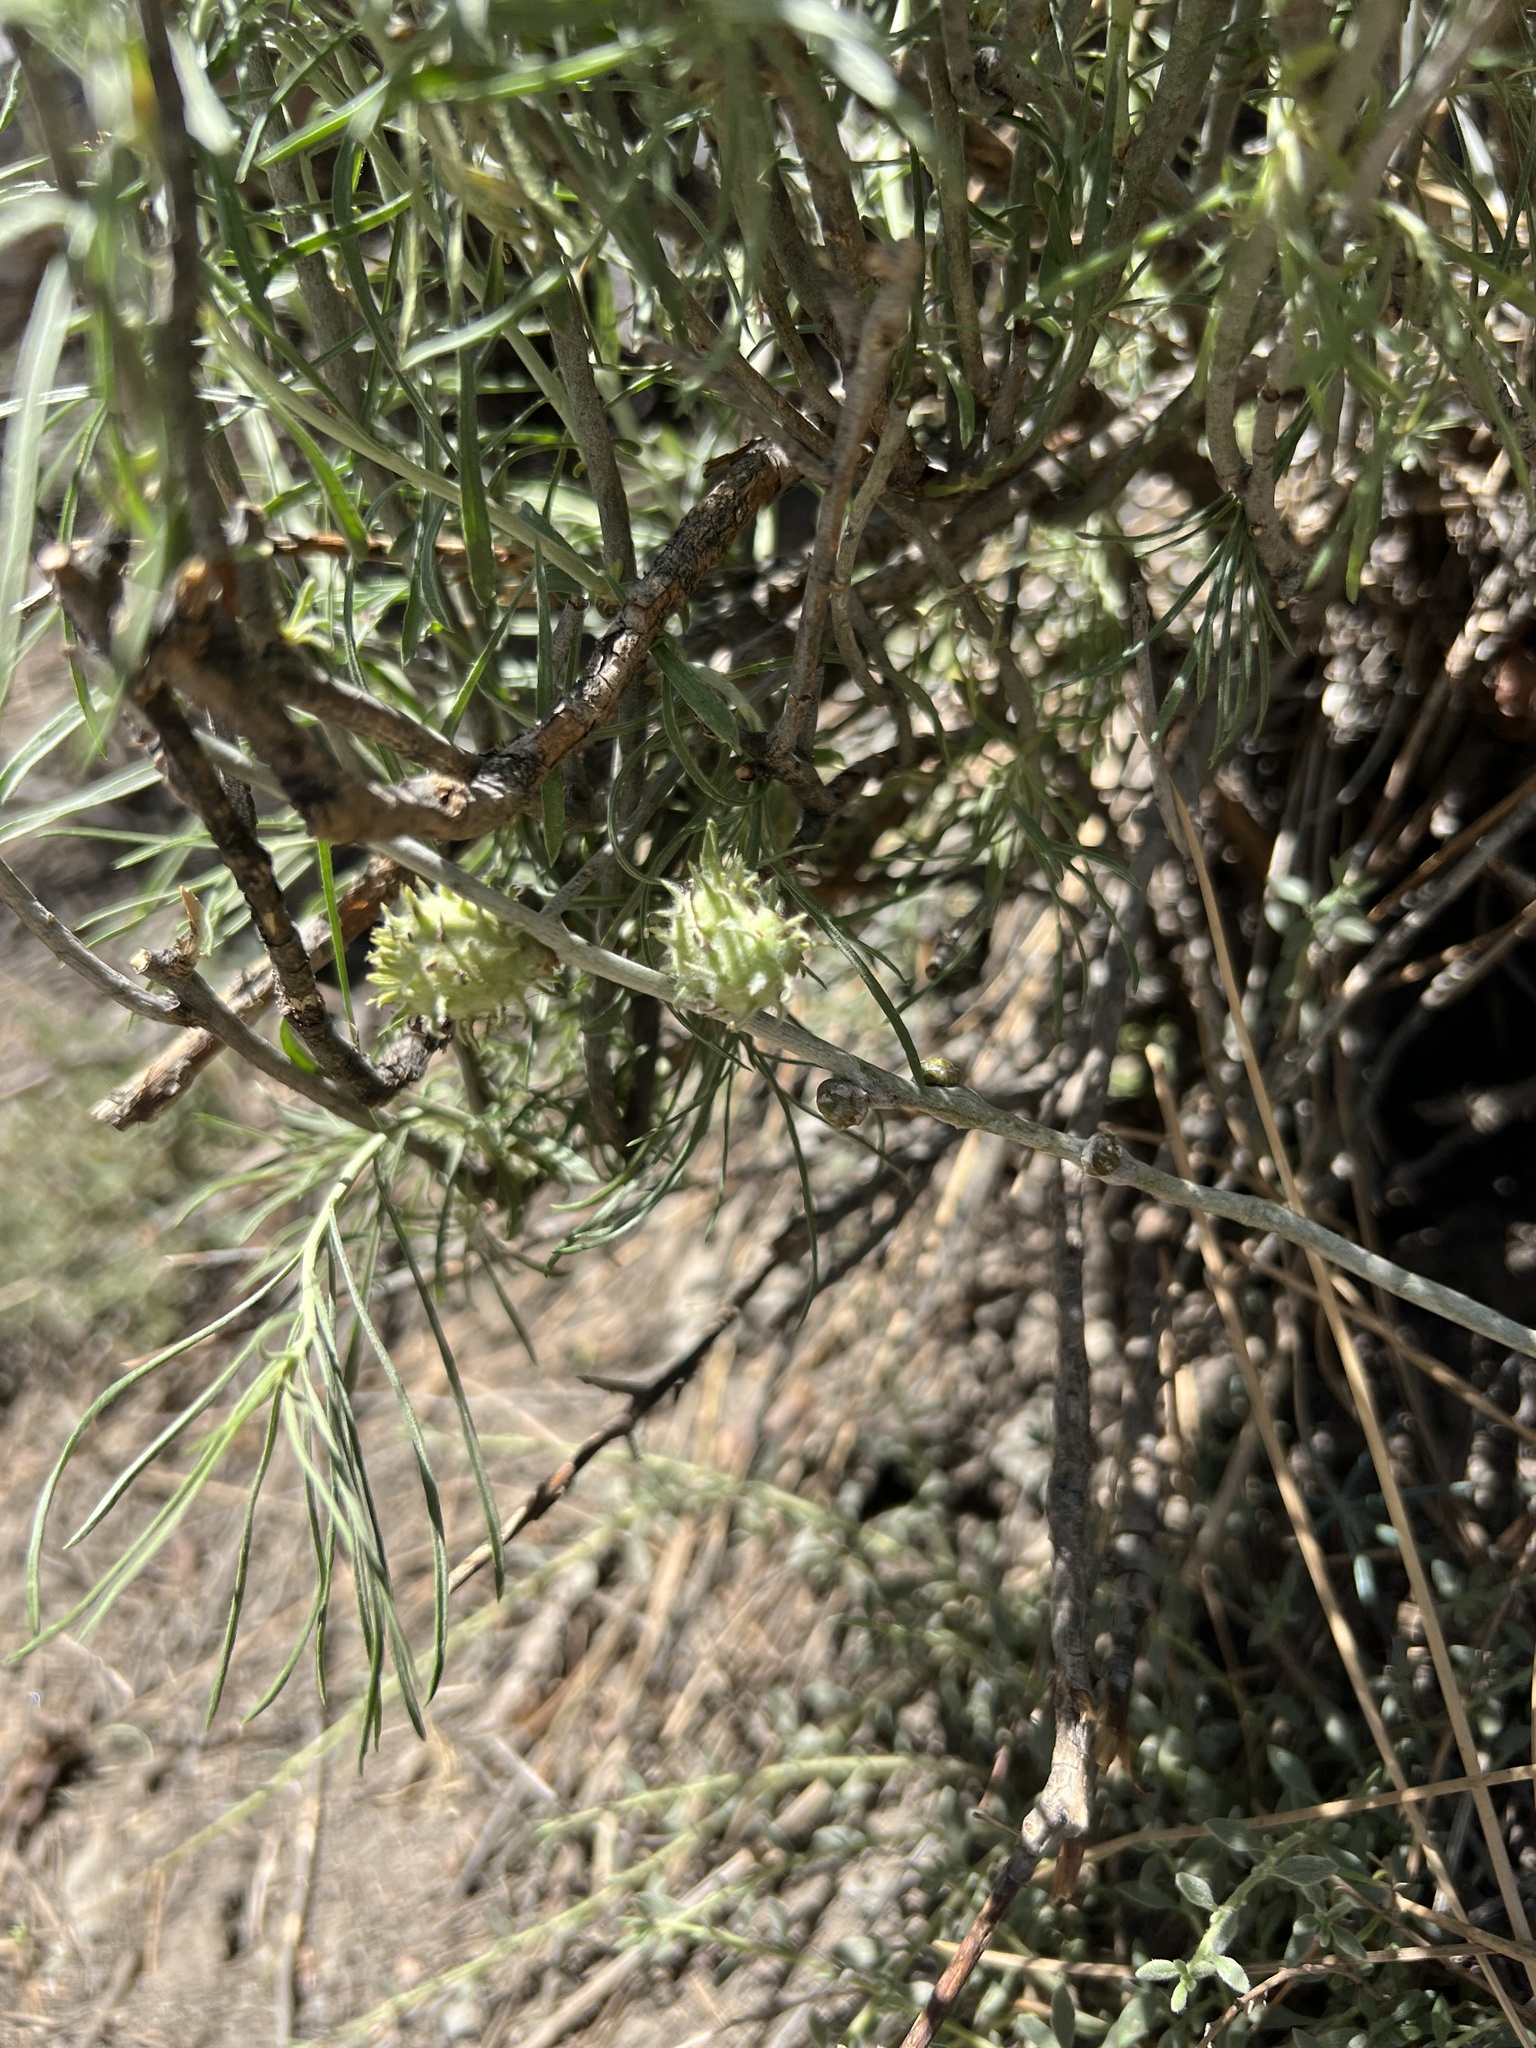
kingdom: Animalia
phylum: Arthropoda
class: Insecta
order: Diptera
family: Tephritidae
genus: Aciurina
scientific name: Aciurina trixa
